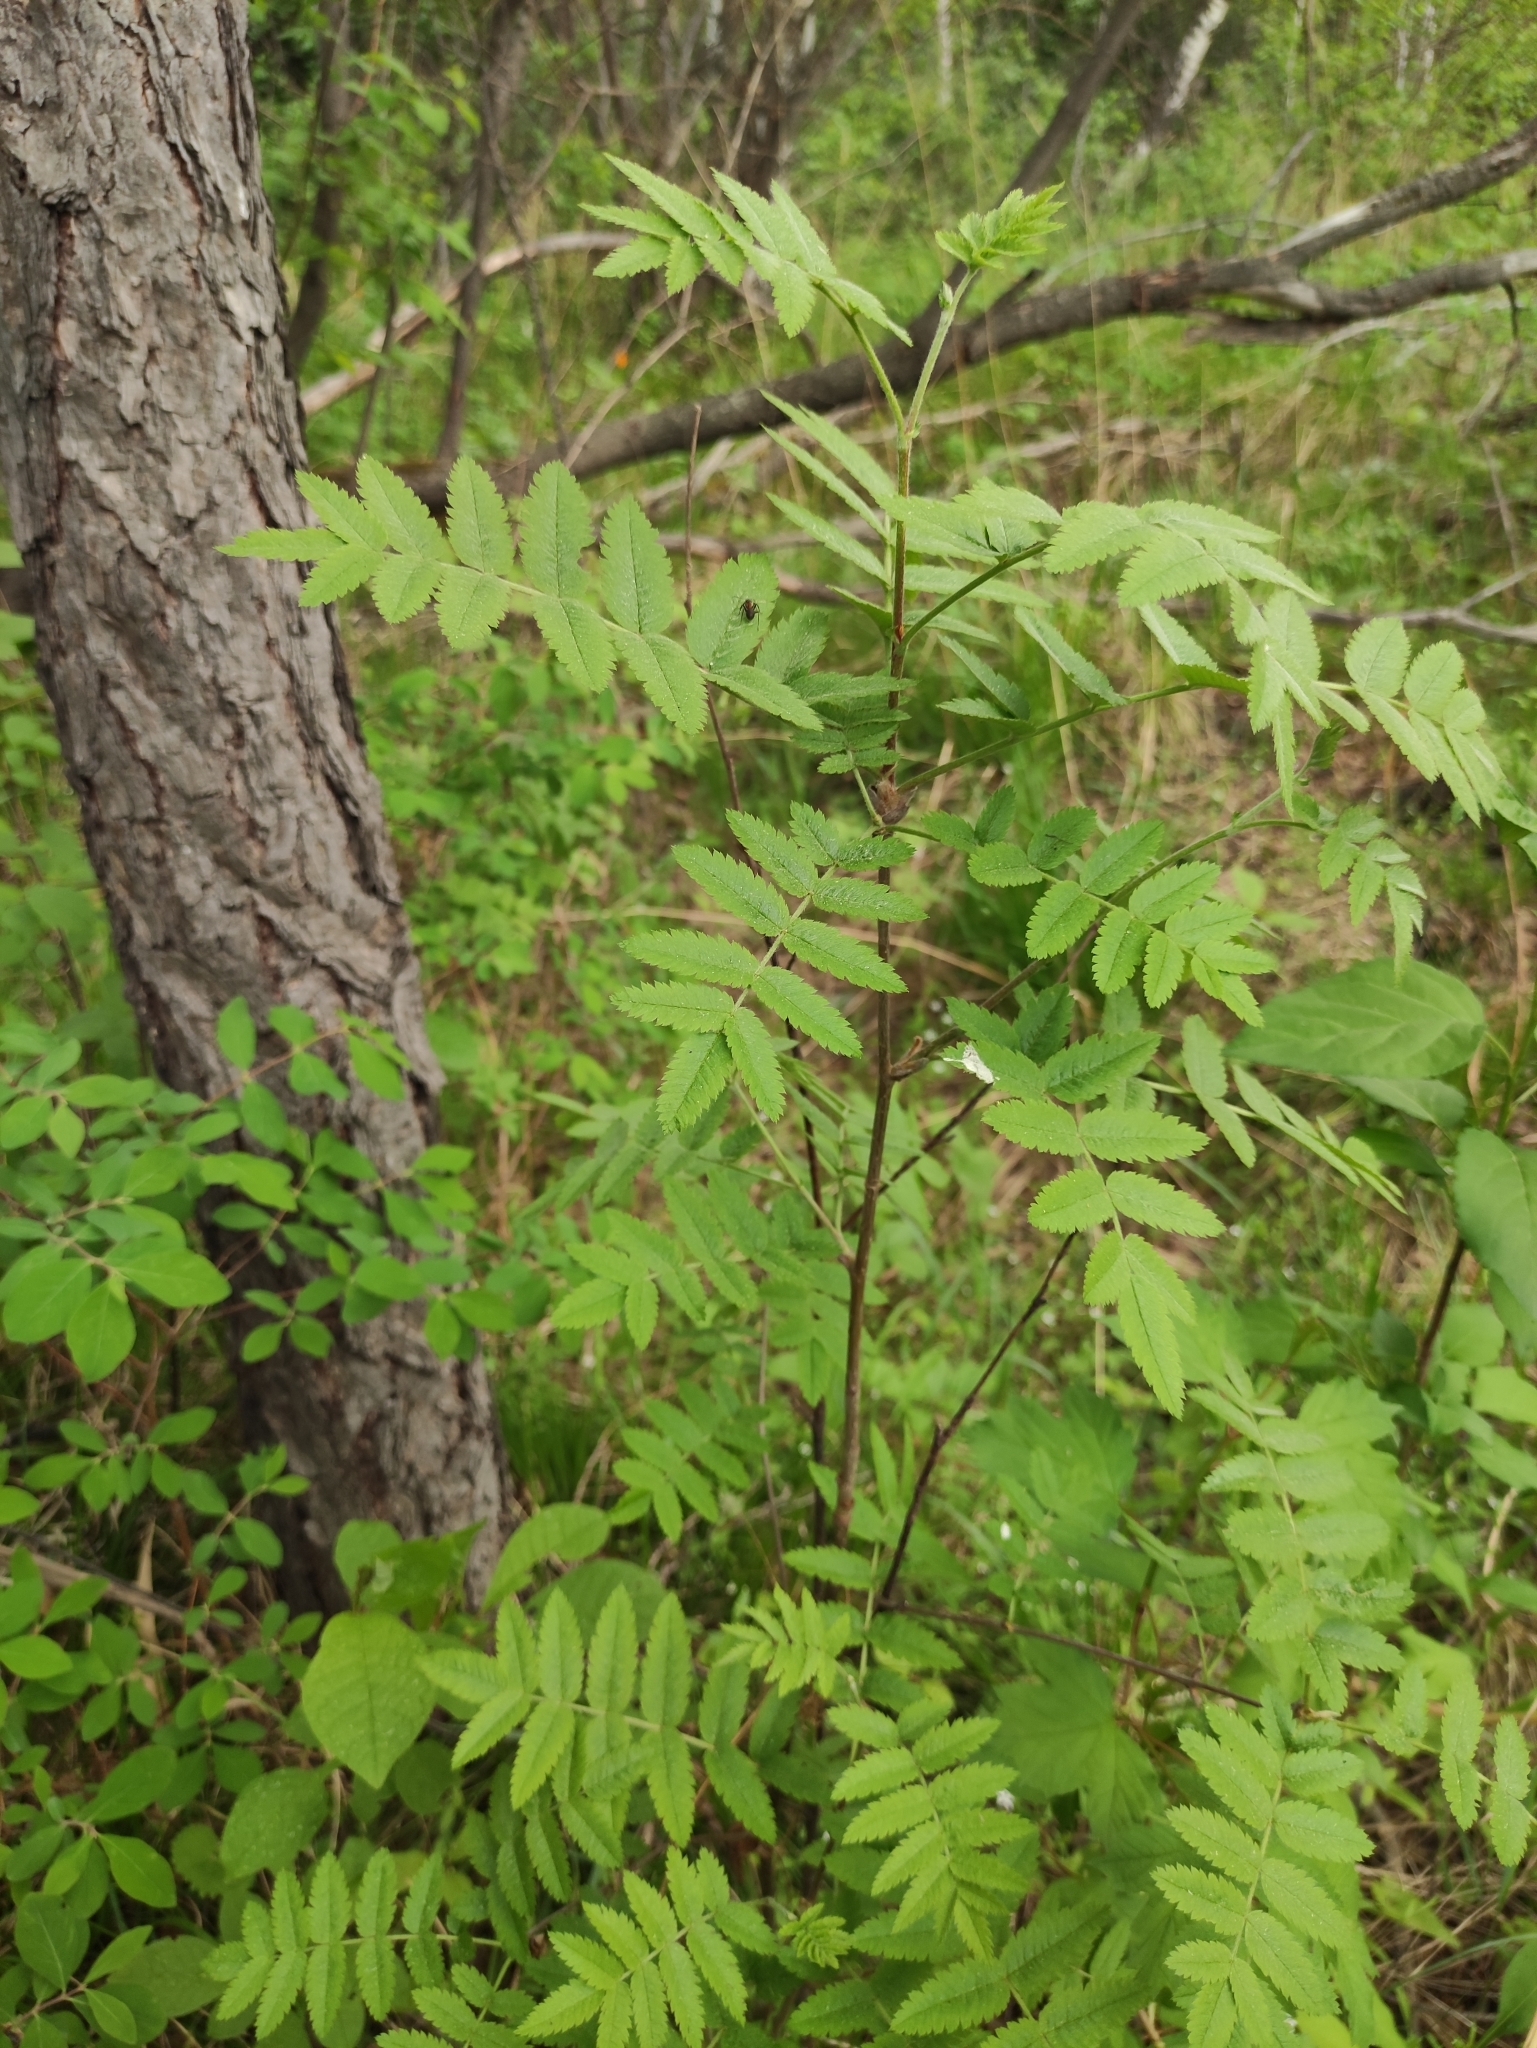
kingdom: Plantae
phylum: Tracheophyta
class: Magnoliopsida
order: Rosales
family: Rosaceae
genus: Sorbus
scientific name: Sorbus aucuparia
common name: Rowan
